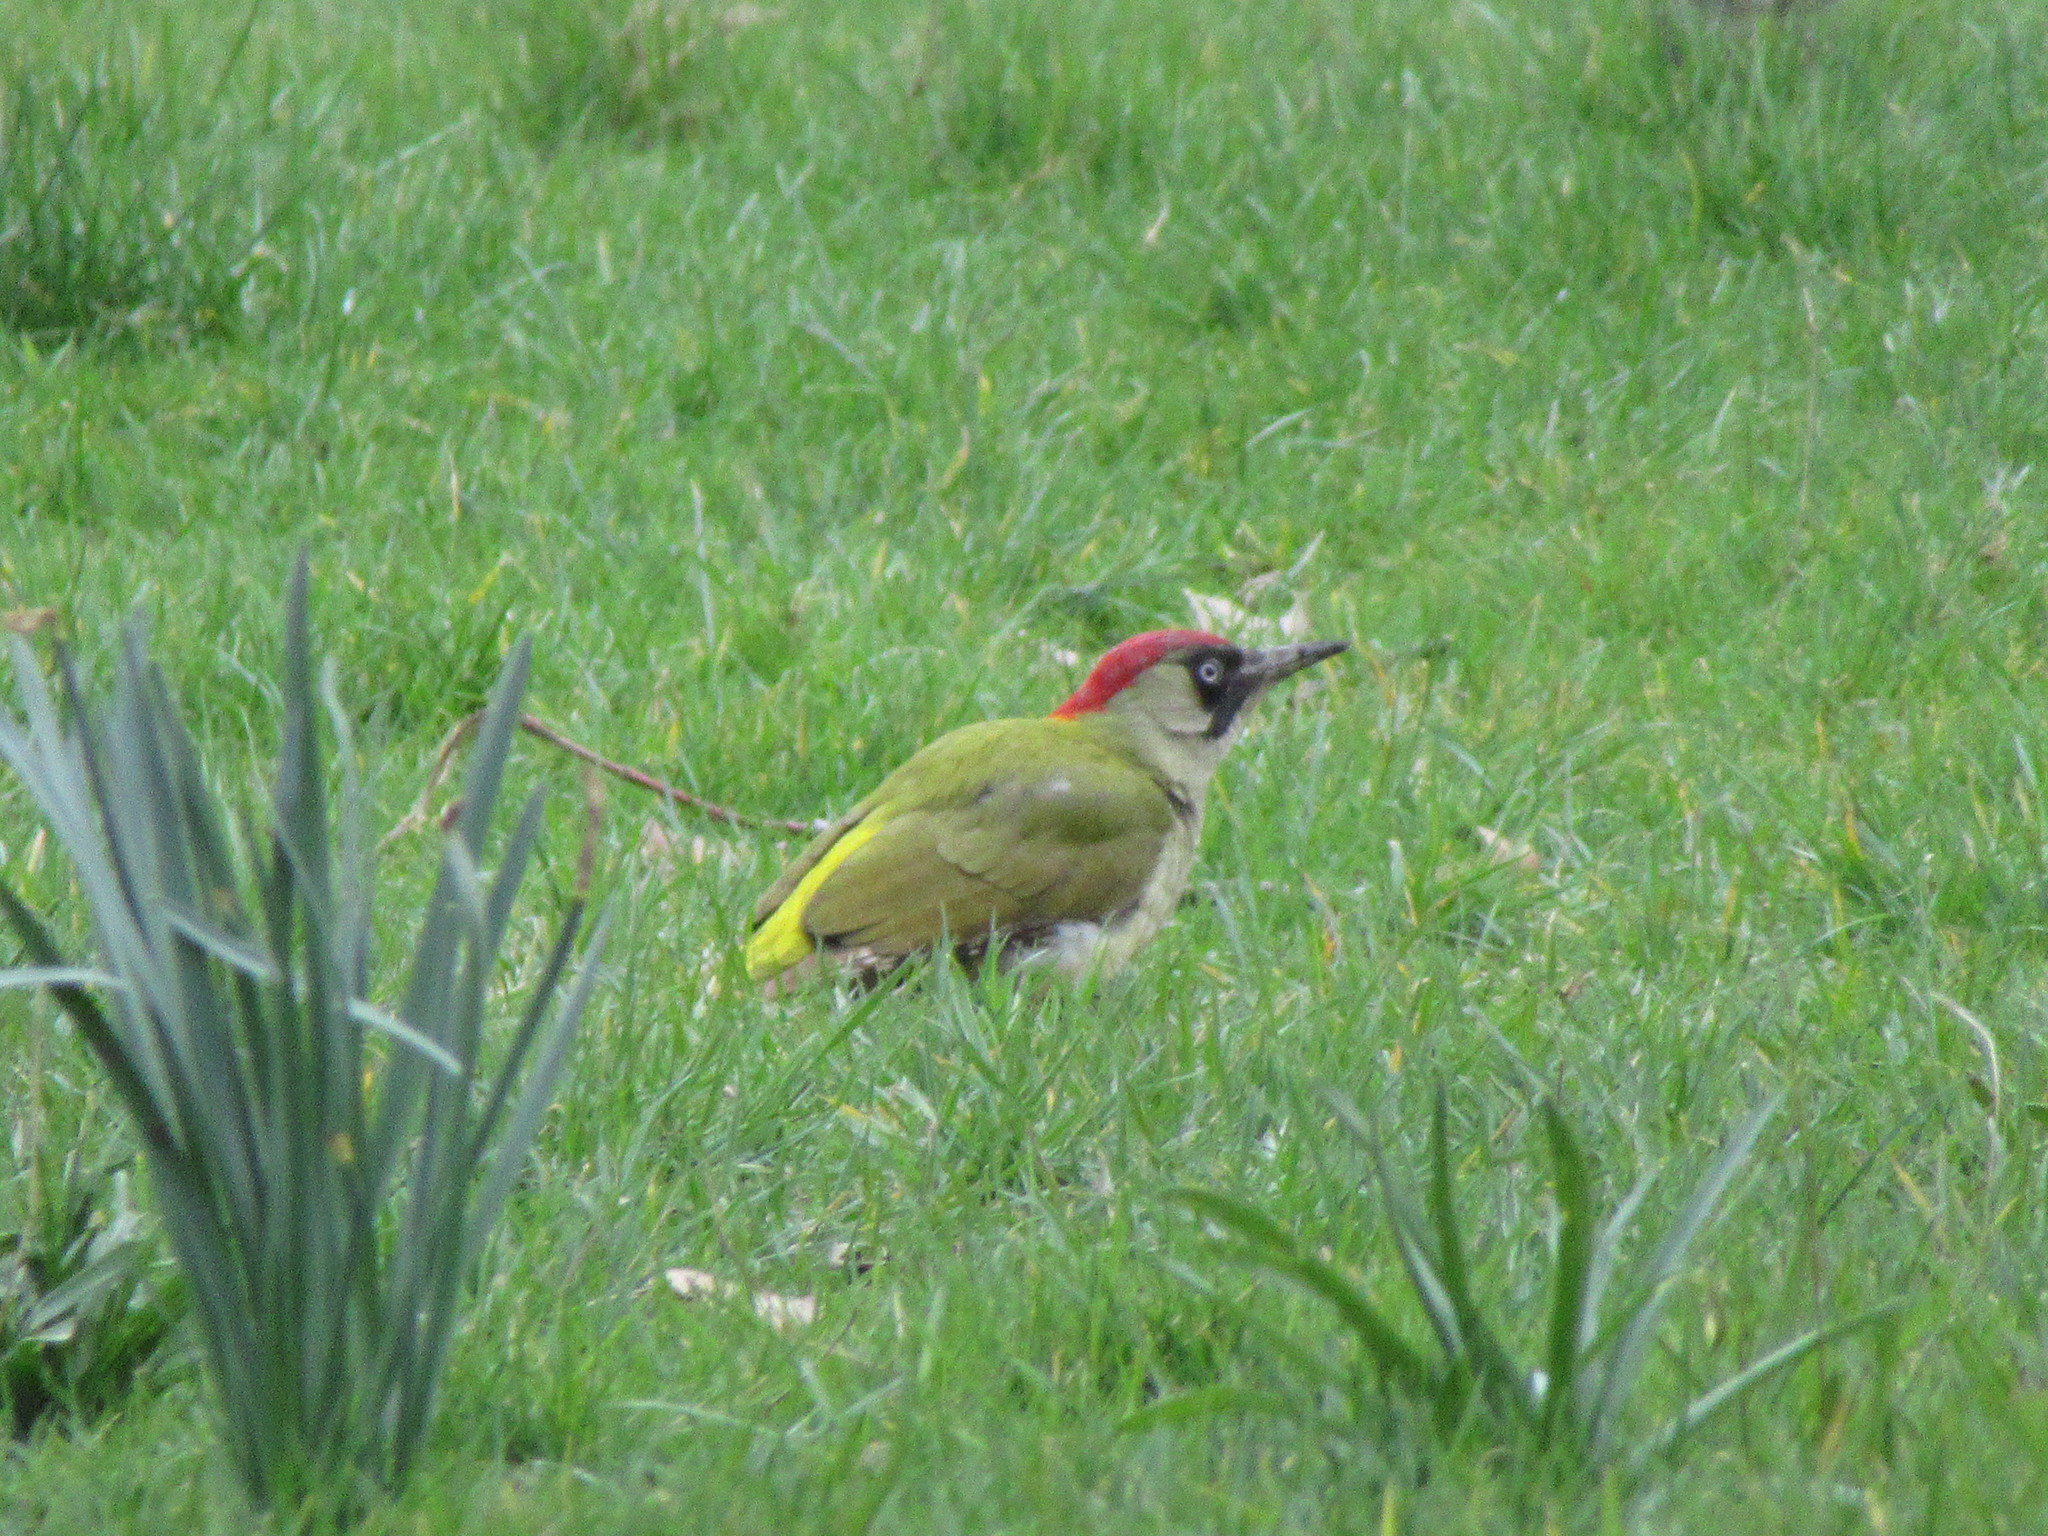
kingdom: Animalia
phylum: Chordata
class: Aves
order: Piciformes
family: Picidae
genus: Picus
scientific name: Picus viridis
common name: European green woodpecker
